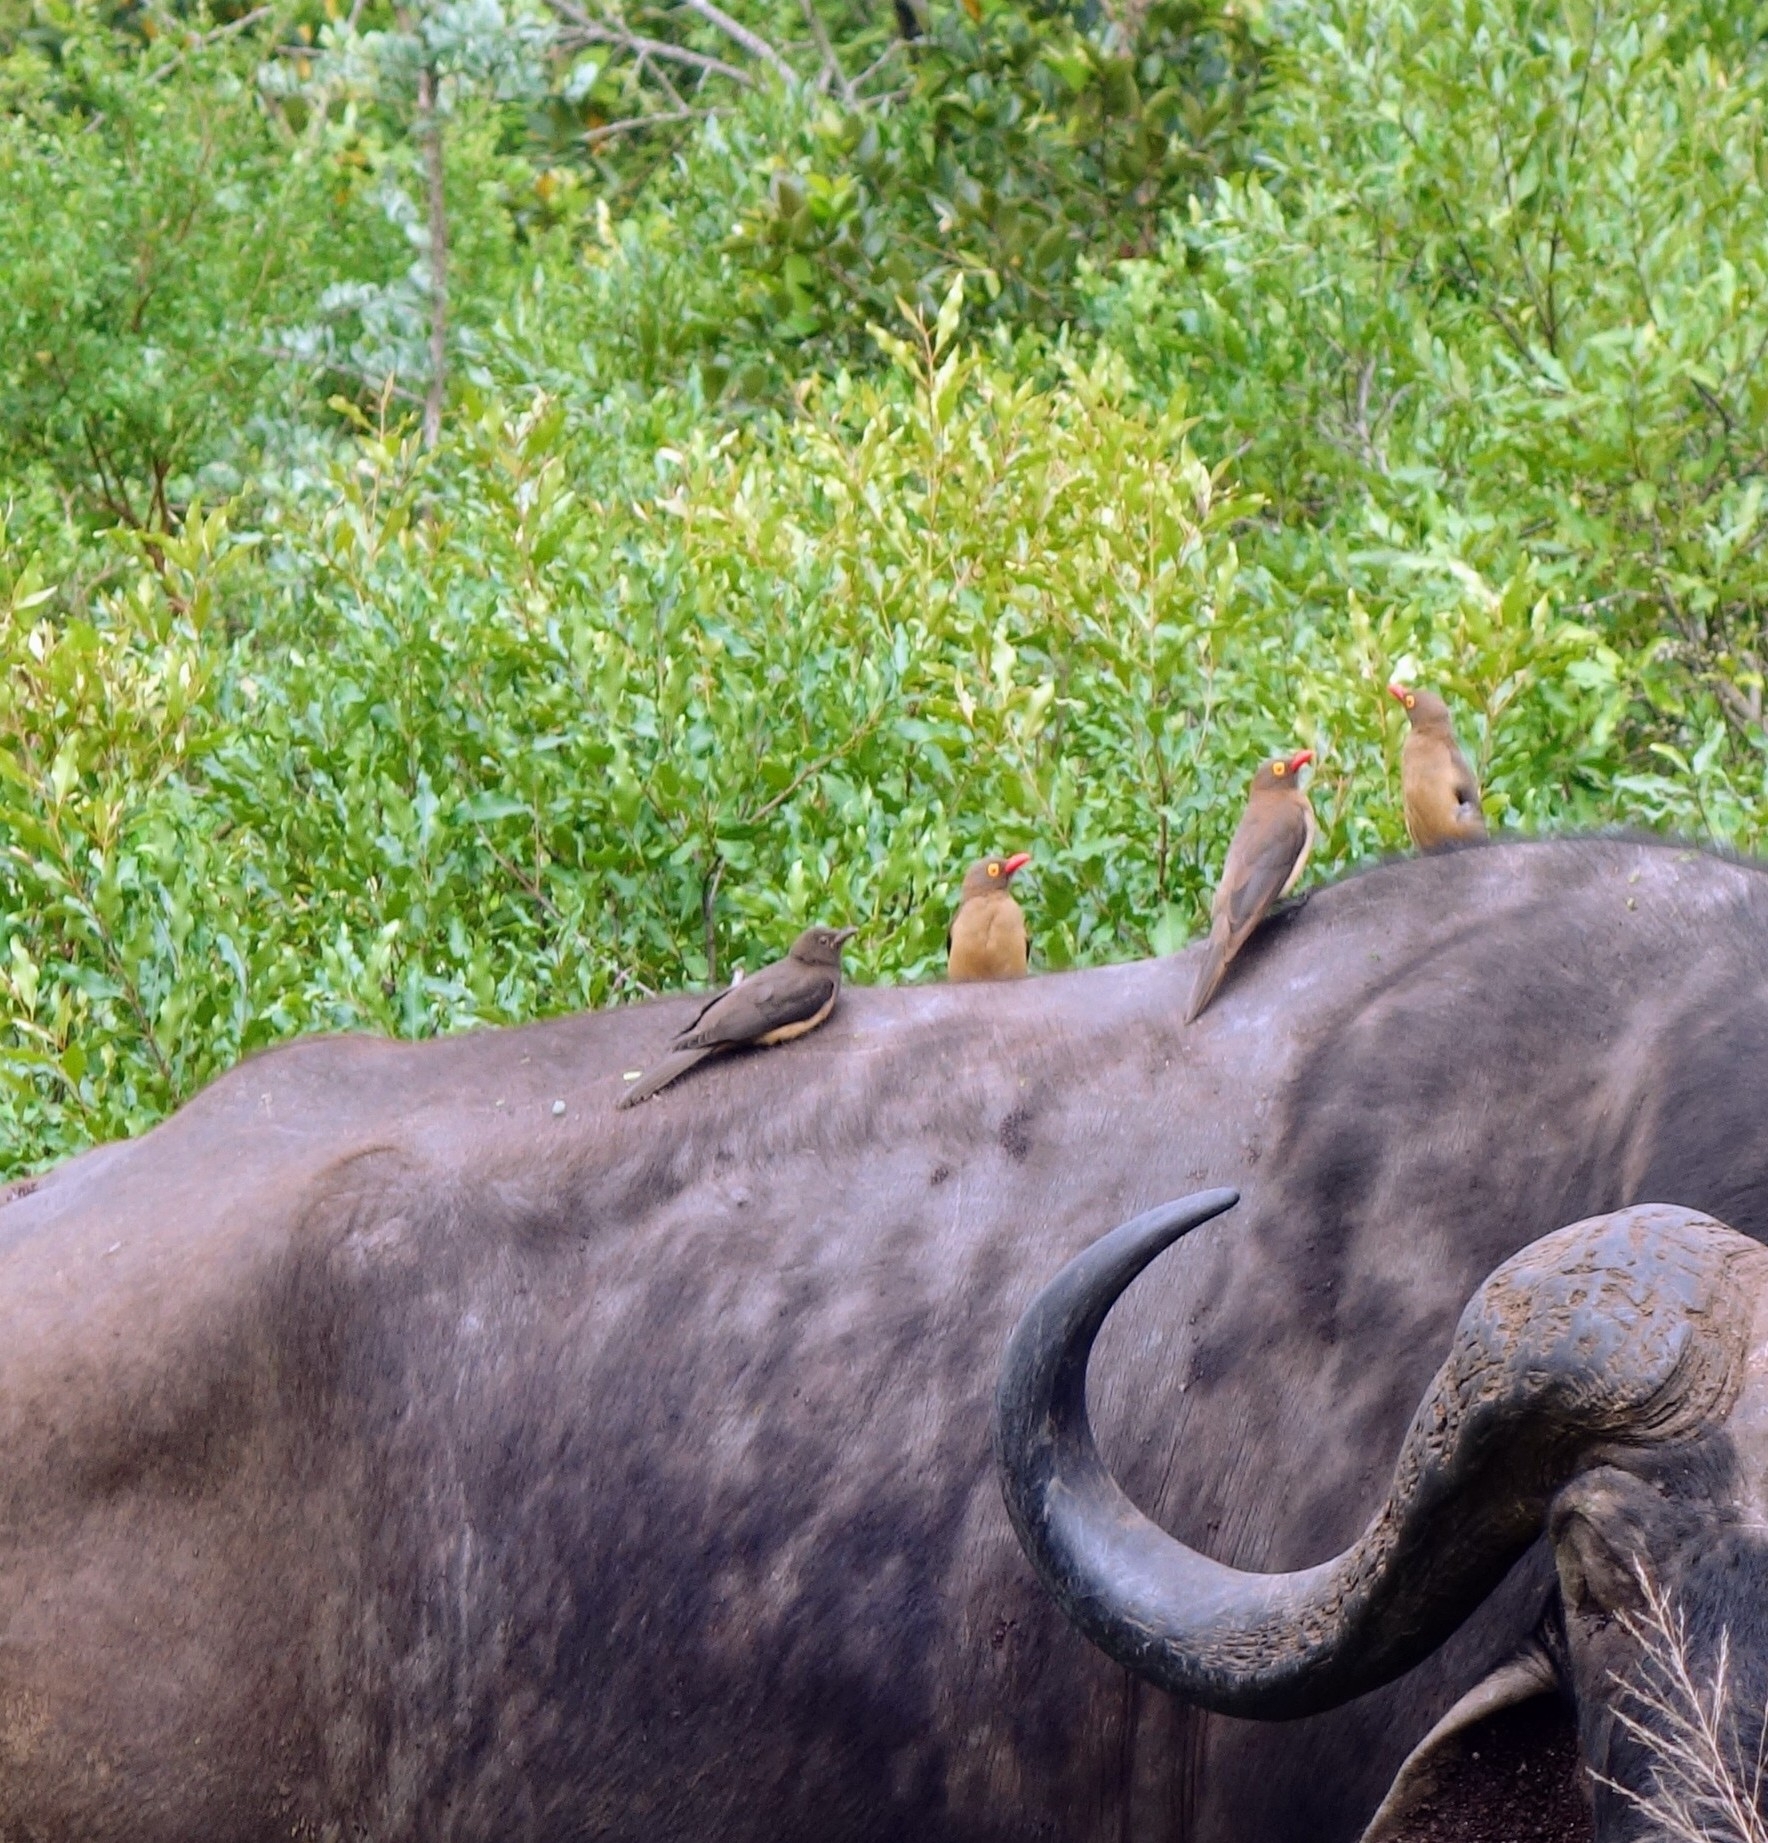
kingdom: Animalia
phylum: Chordata
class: Aves
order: Passeriformes
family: Buphagidae
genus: Buphagus
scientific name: Buphagus erythrorhynchus
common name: Red-billed oxpecker
